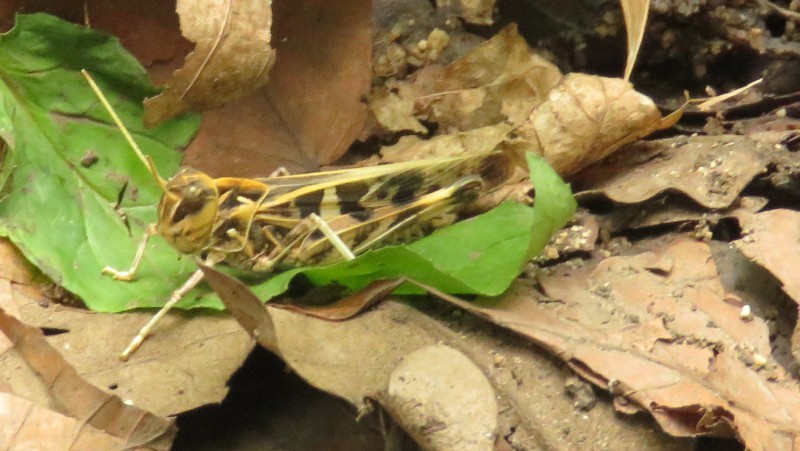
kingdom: Animalia
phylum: Arthropoda
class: Insecta
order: Orthoptera
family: Acrididae
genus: Oedaleus
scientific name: Oedaleus decorus
